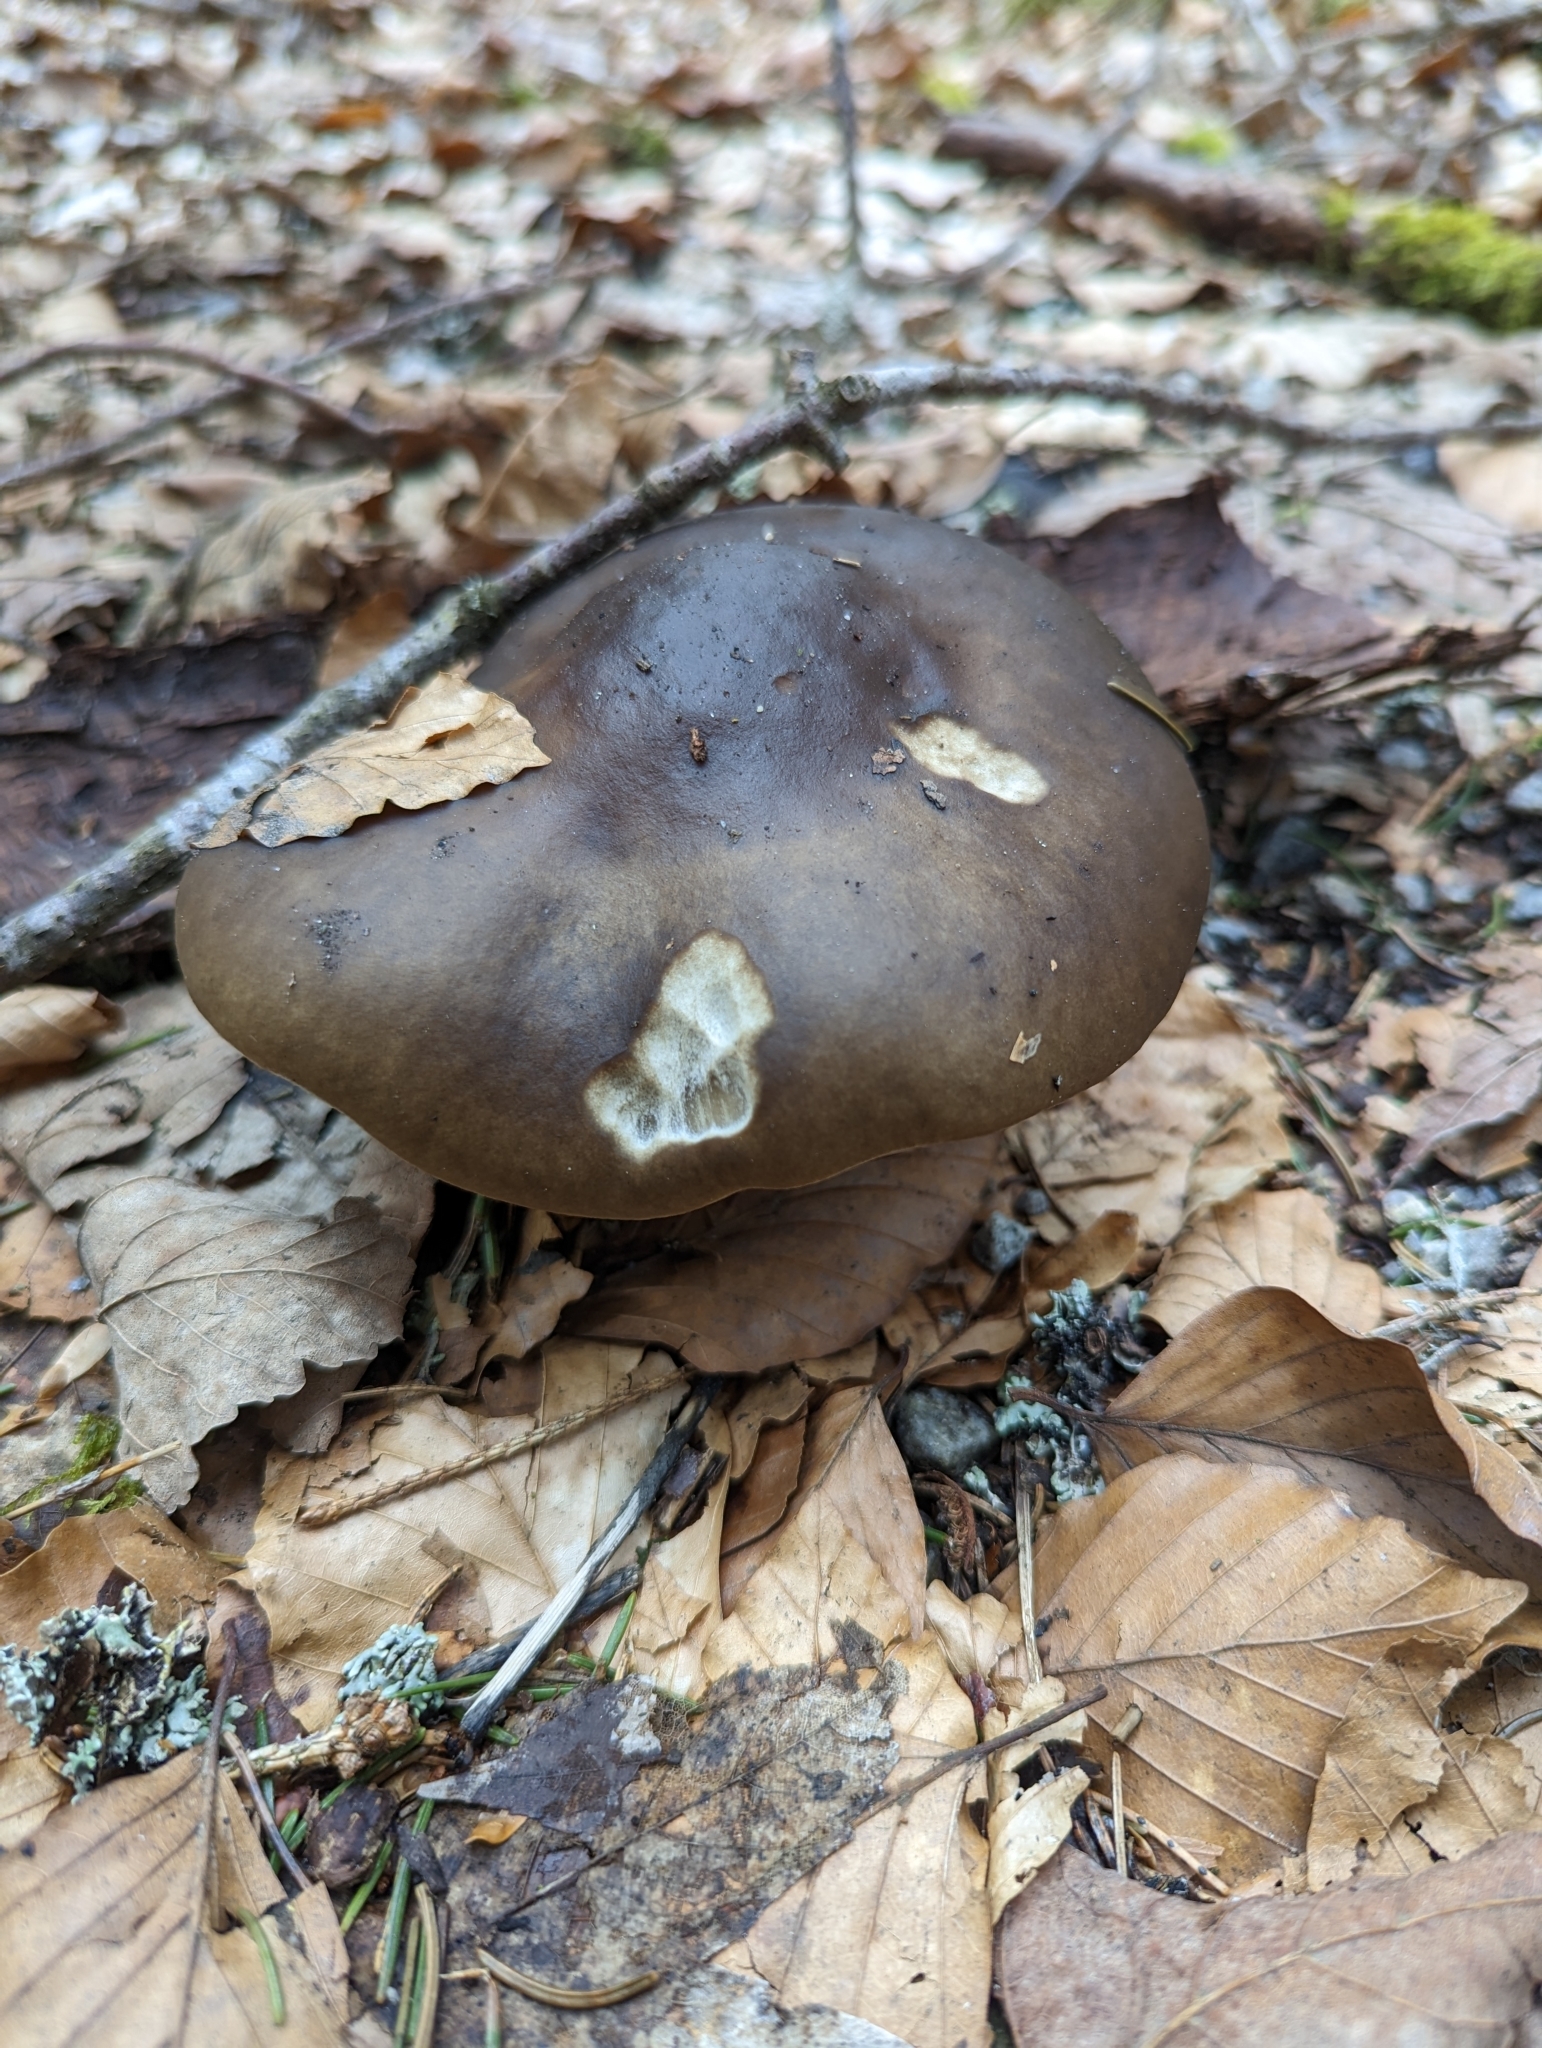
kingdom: Fungi
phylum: Basidiomycota
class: Agaricomycetes
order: Agaricales
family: Tricholomataceae
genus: Melanoleuca
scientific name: Melanoleuca cognata
